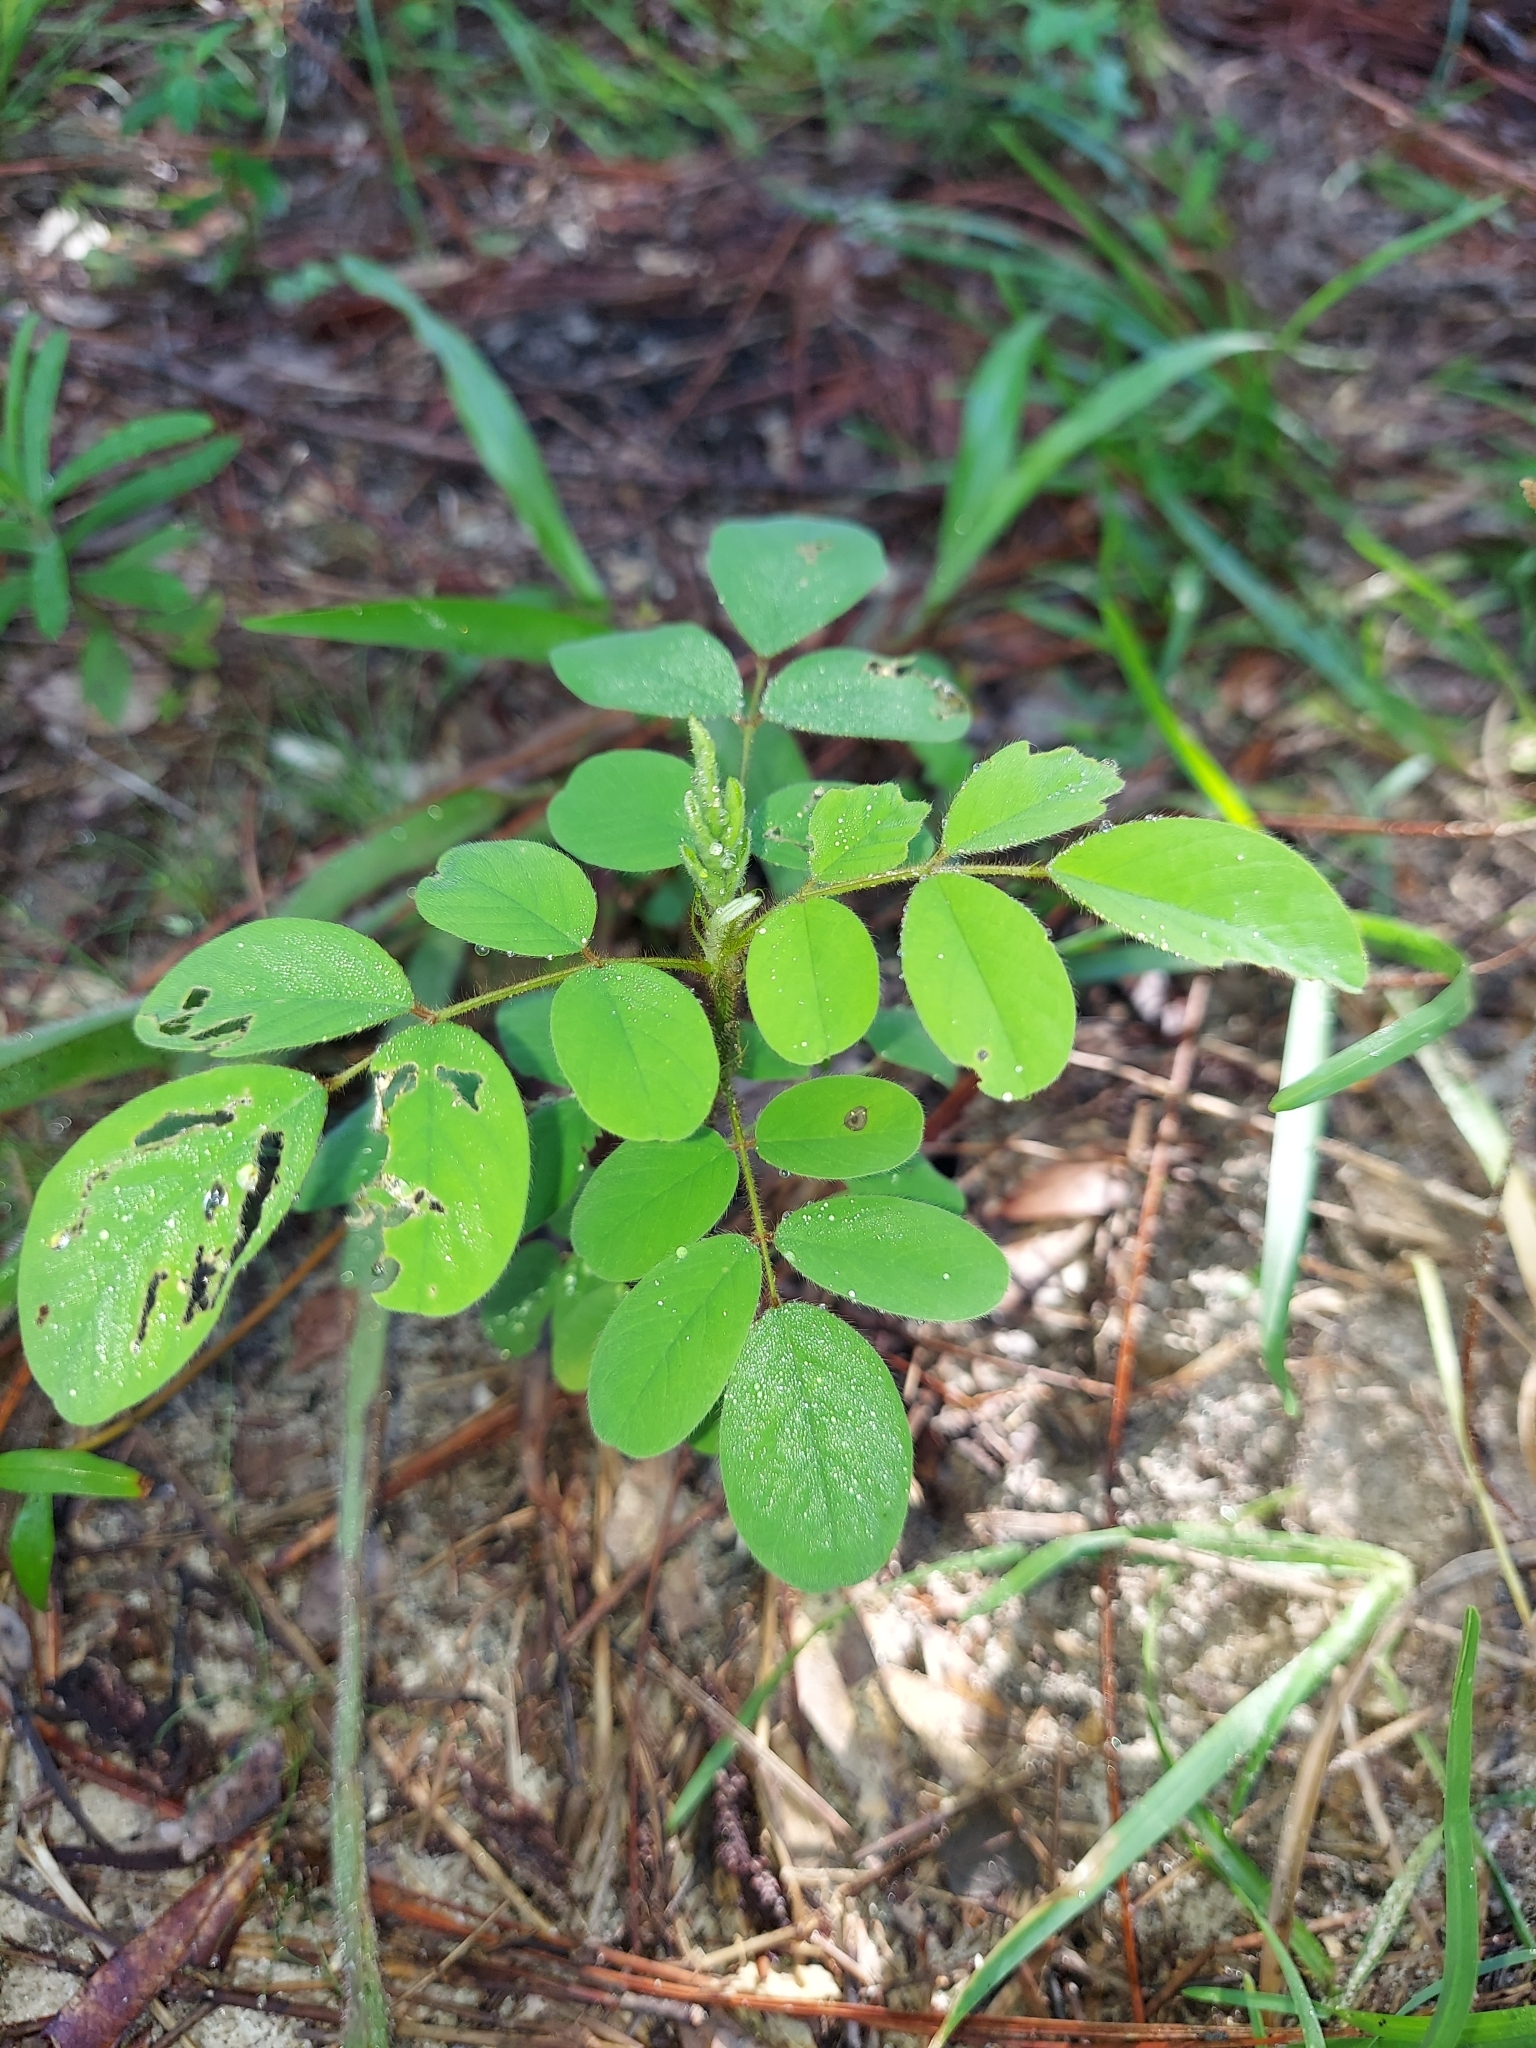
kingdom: Plantae
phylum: Tracheophyta
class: Magnoliopsida
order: Fabales
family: Fabaceae
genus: Indigofera
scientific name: Indigofera hirsuta
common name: Hairy indigo
